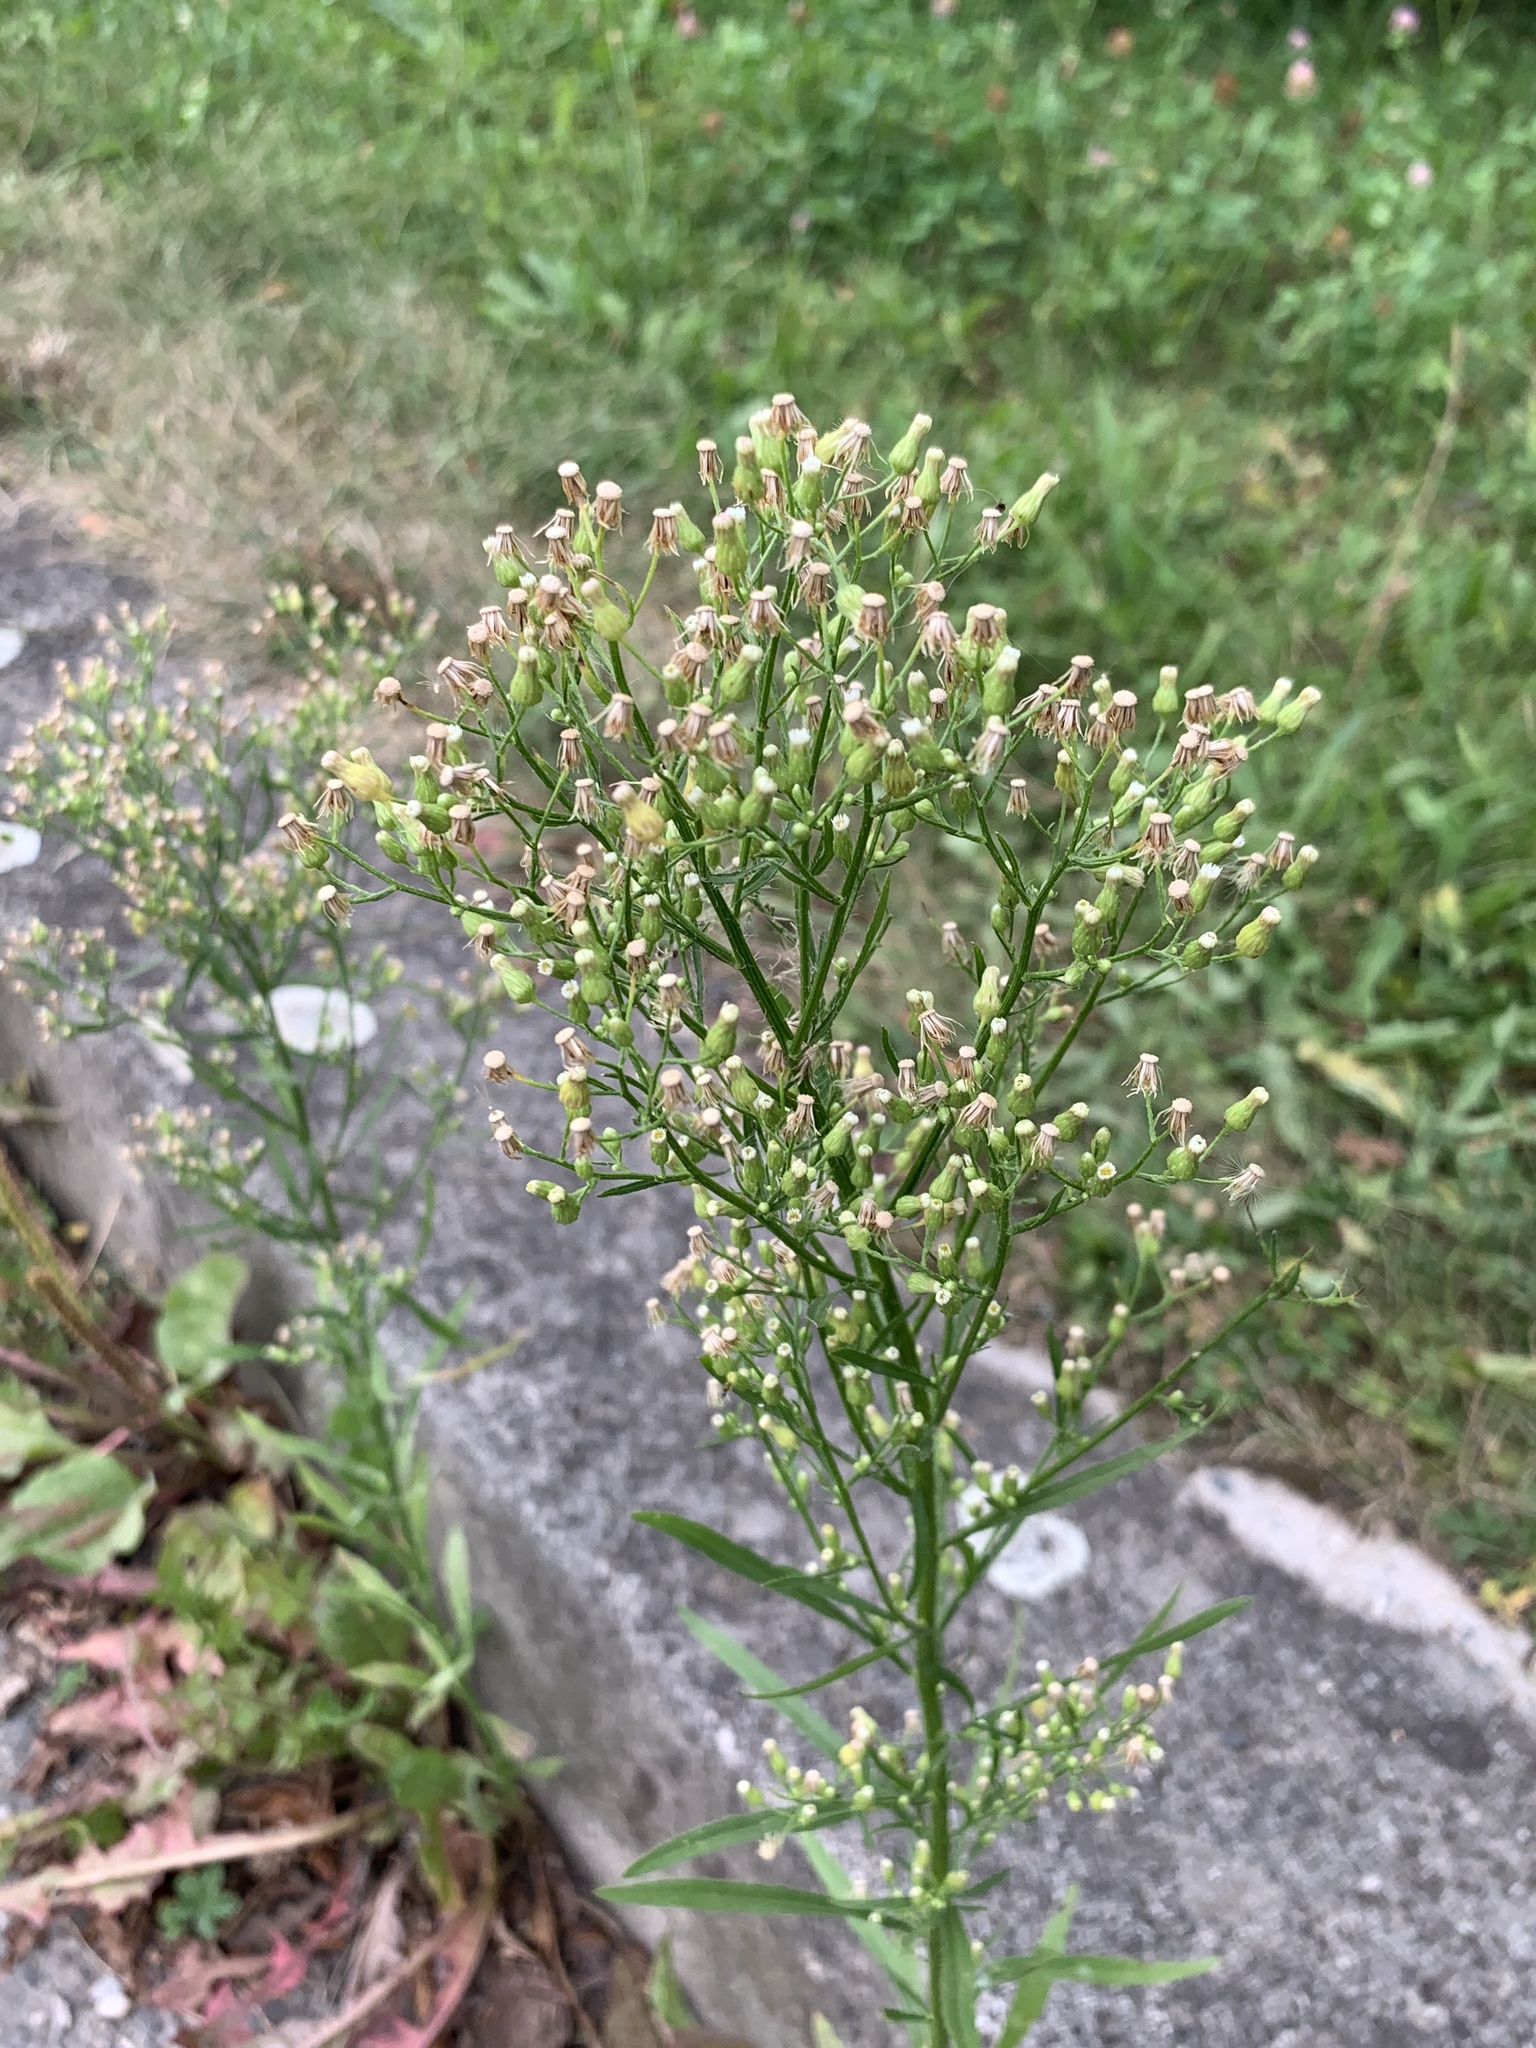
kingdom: Plantae
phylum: Tracheophyta
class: Magnoliopsida
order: Asterales
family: Asteraceae
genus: Erigeron
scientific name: Erigeron canadensis
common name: Canadian fleabane
